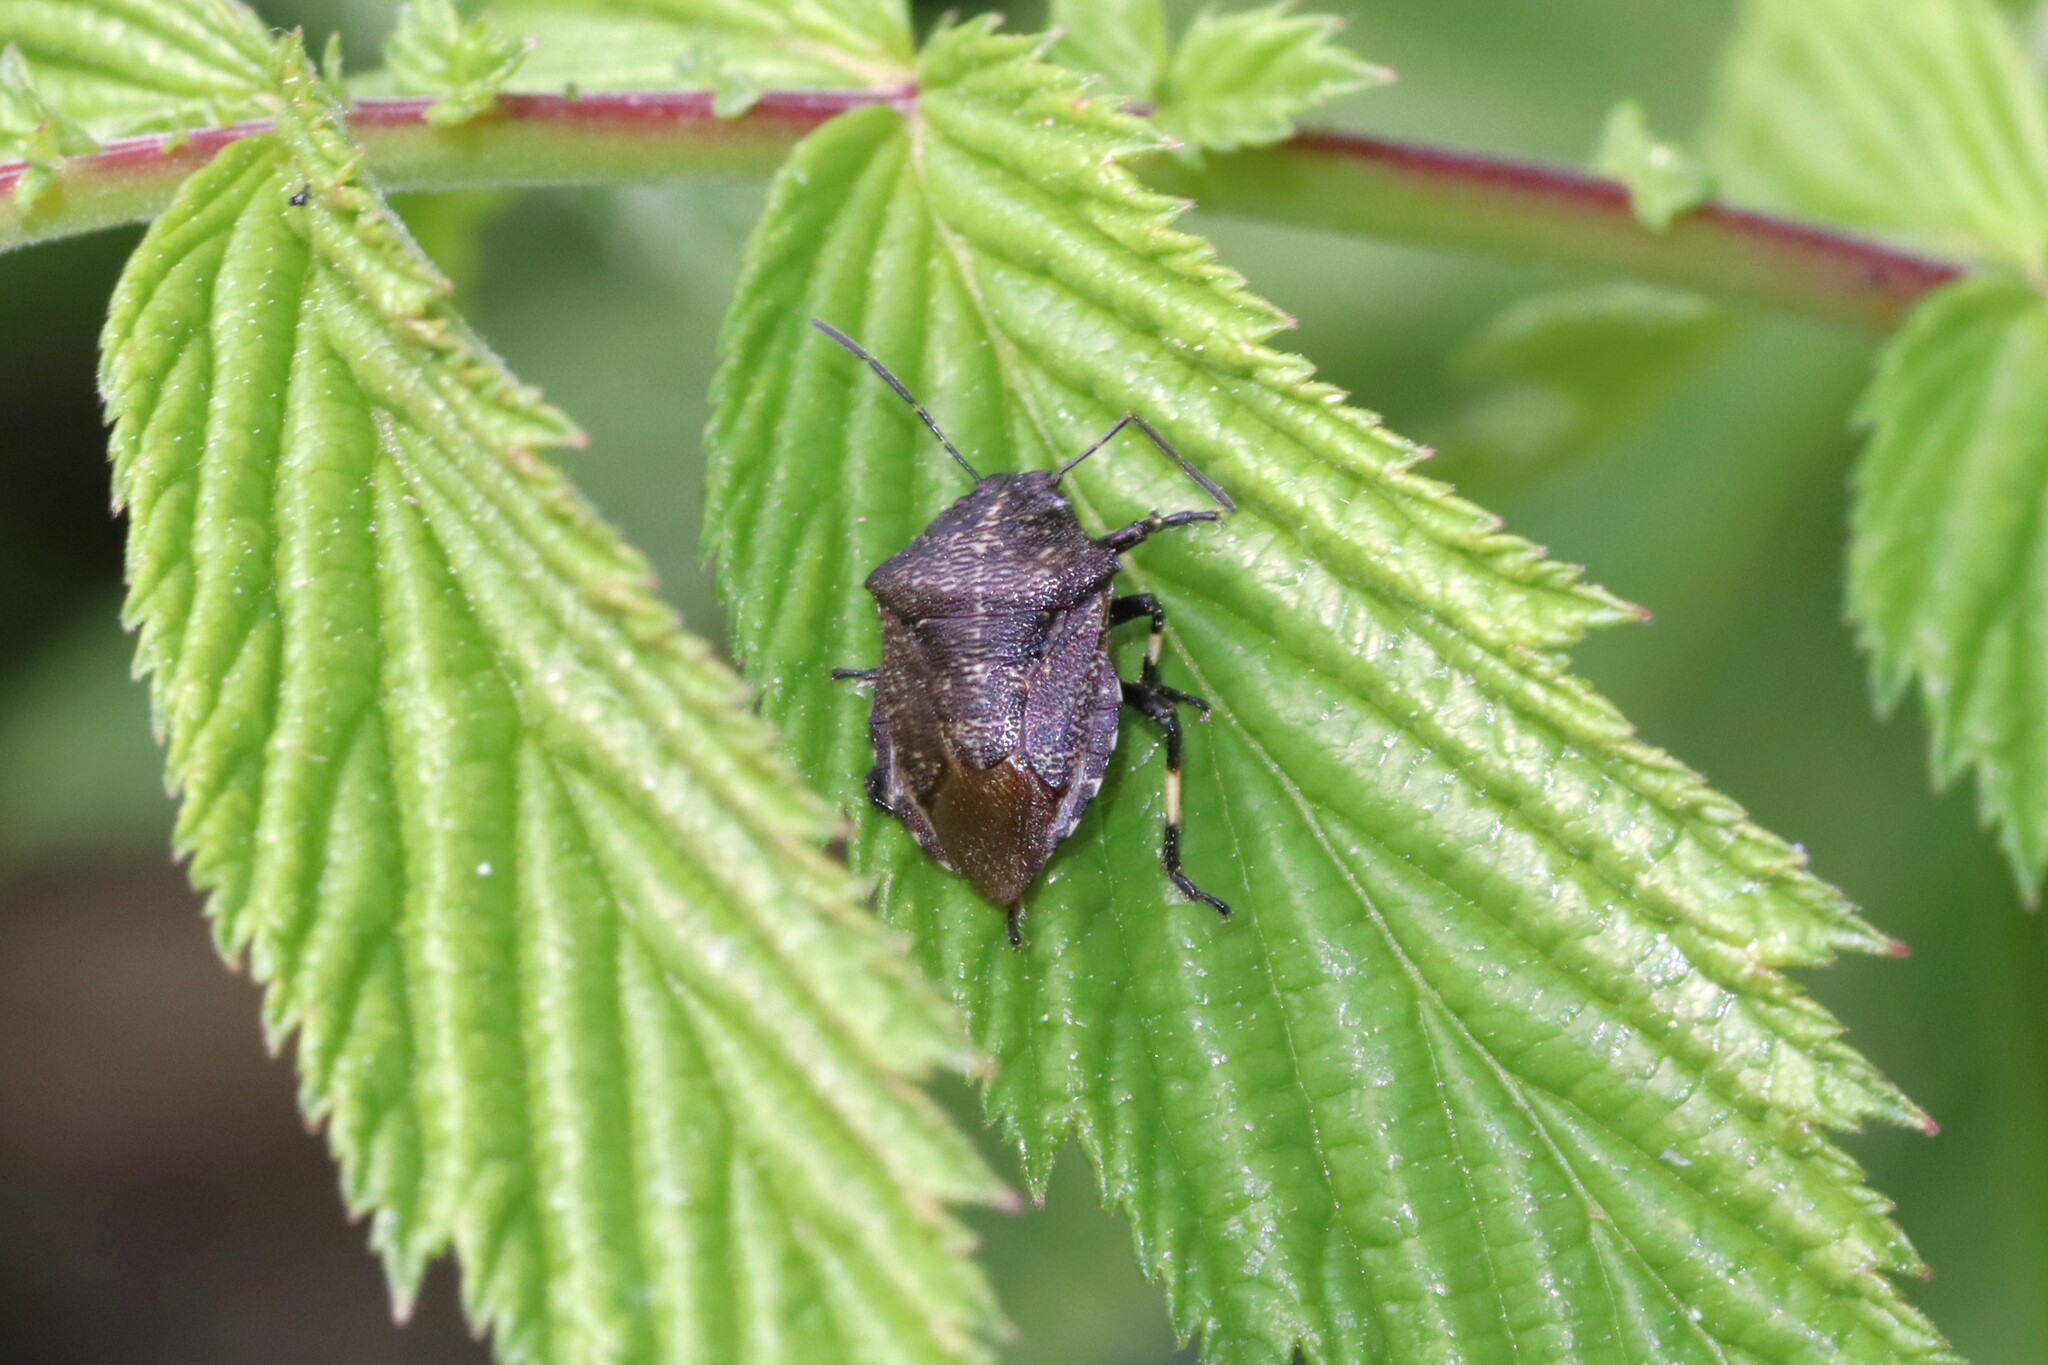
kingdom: Animalia
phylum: Arthropoda
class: Insecta
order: Hemiptera
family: Pentatomidae
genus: Rhacognathus
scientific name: Rhacognathus punctatus
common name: Heather bug
